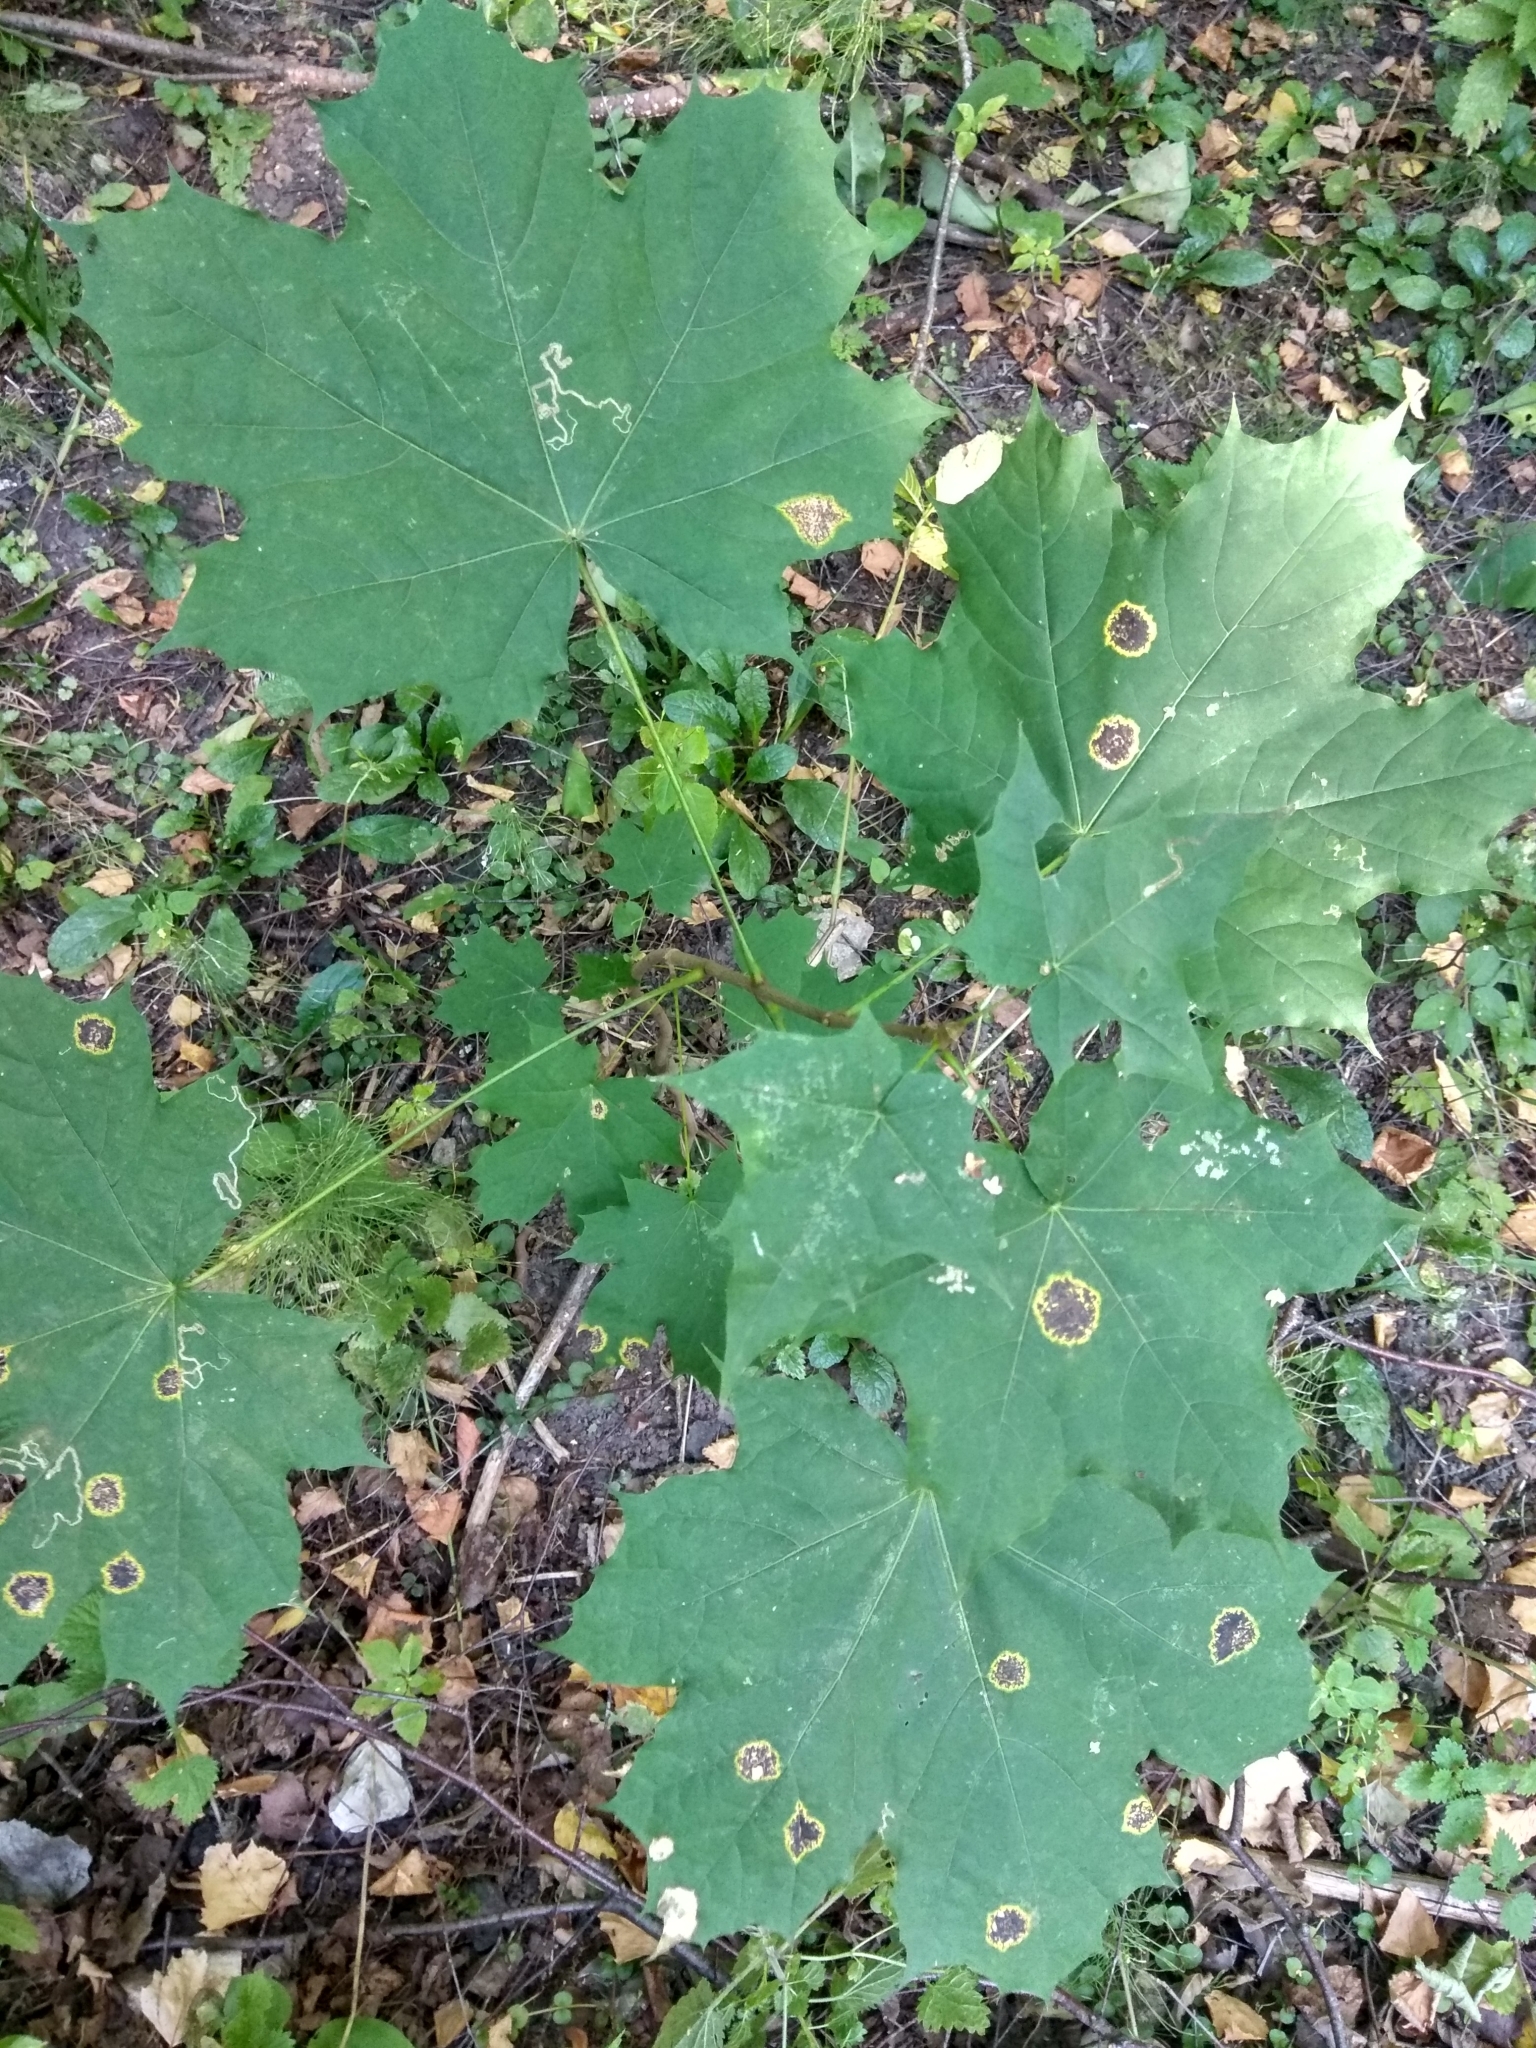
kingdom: Plantae
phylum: Tracheophyta
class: Magnoliopsida
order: Sapindales
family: Sapindaceae
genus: Acer
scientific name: Acer platanoides
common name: Norway maple
